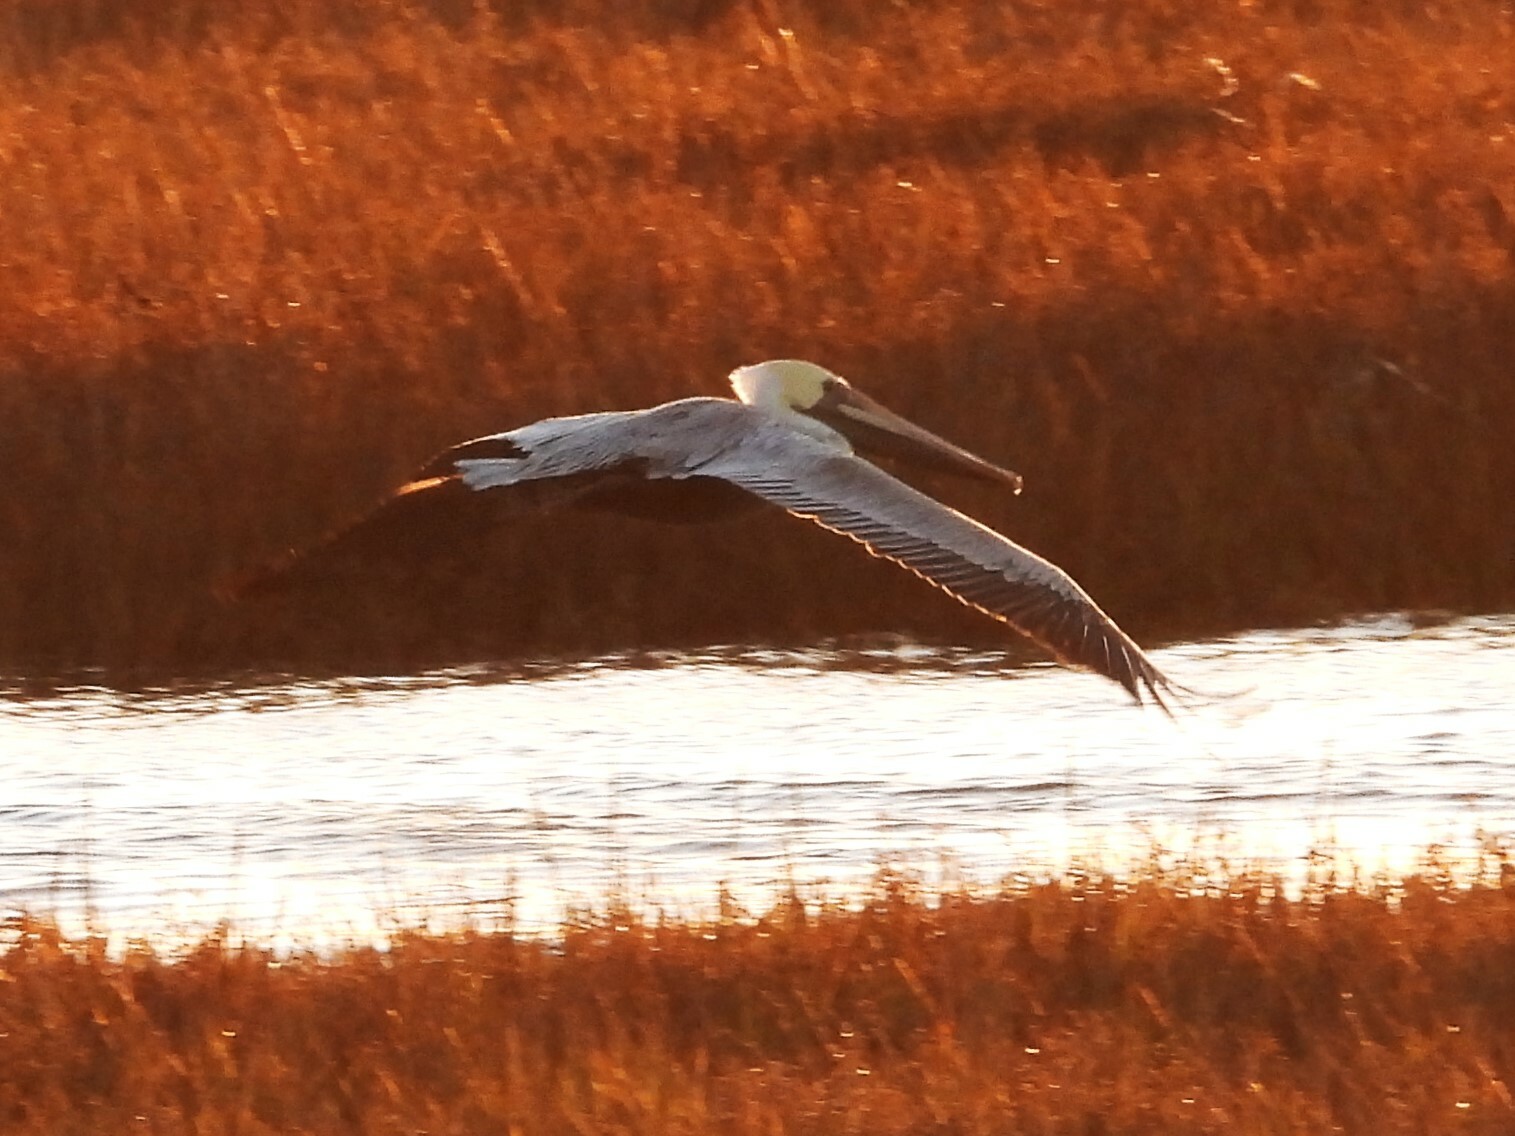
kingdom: Animalia
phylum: Chordata
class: Aves
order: Pelecaniformes
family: Pelecanidae
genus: Pelecanus
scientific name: Pelecanus occidentalis
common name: Brown pelican
